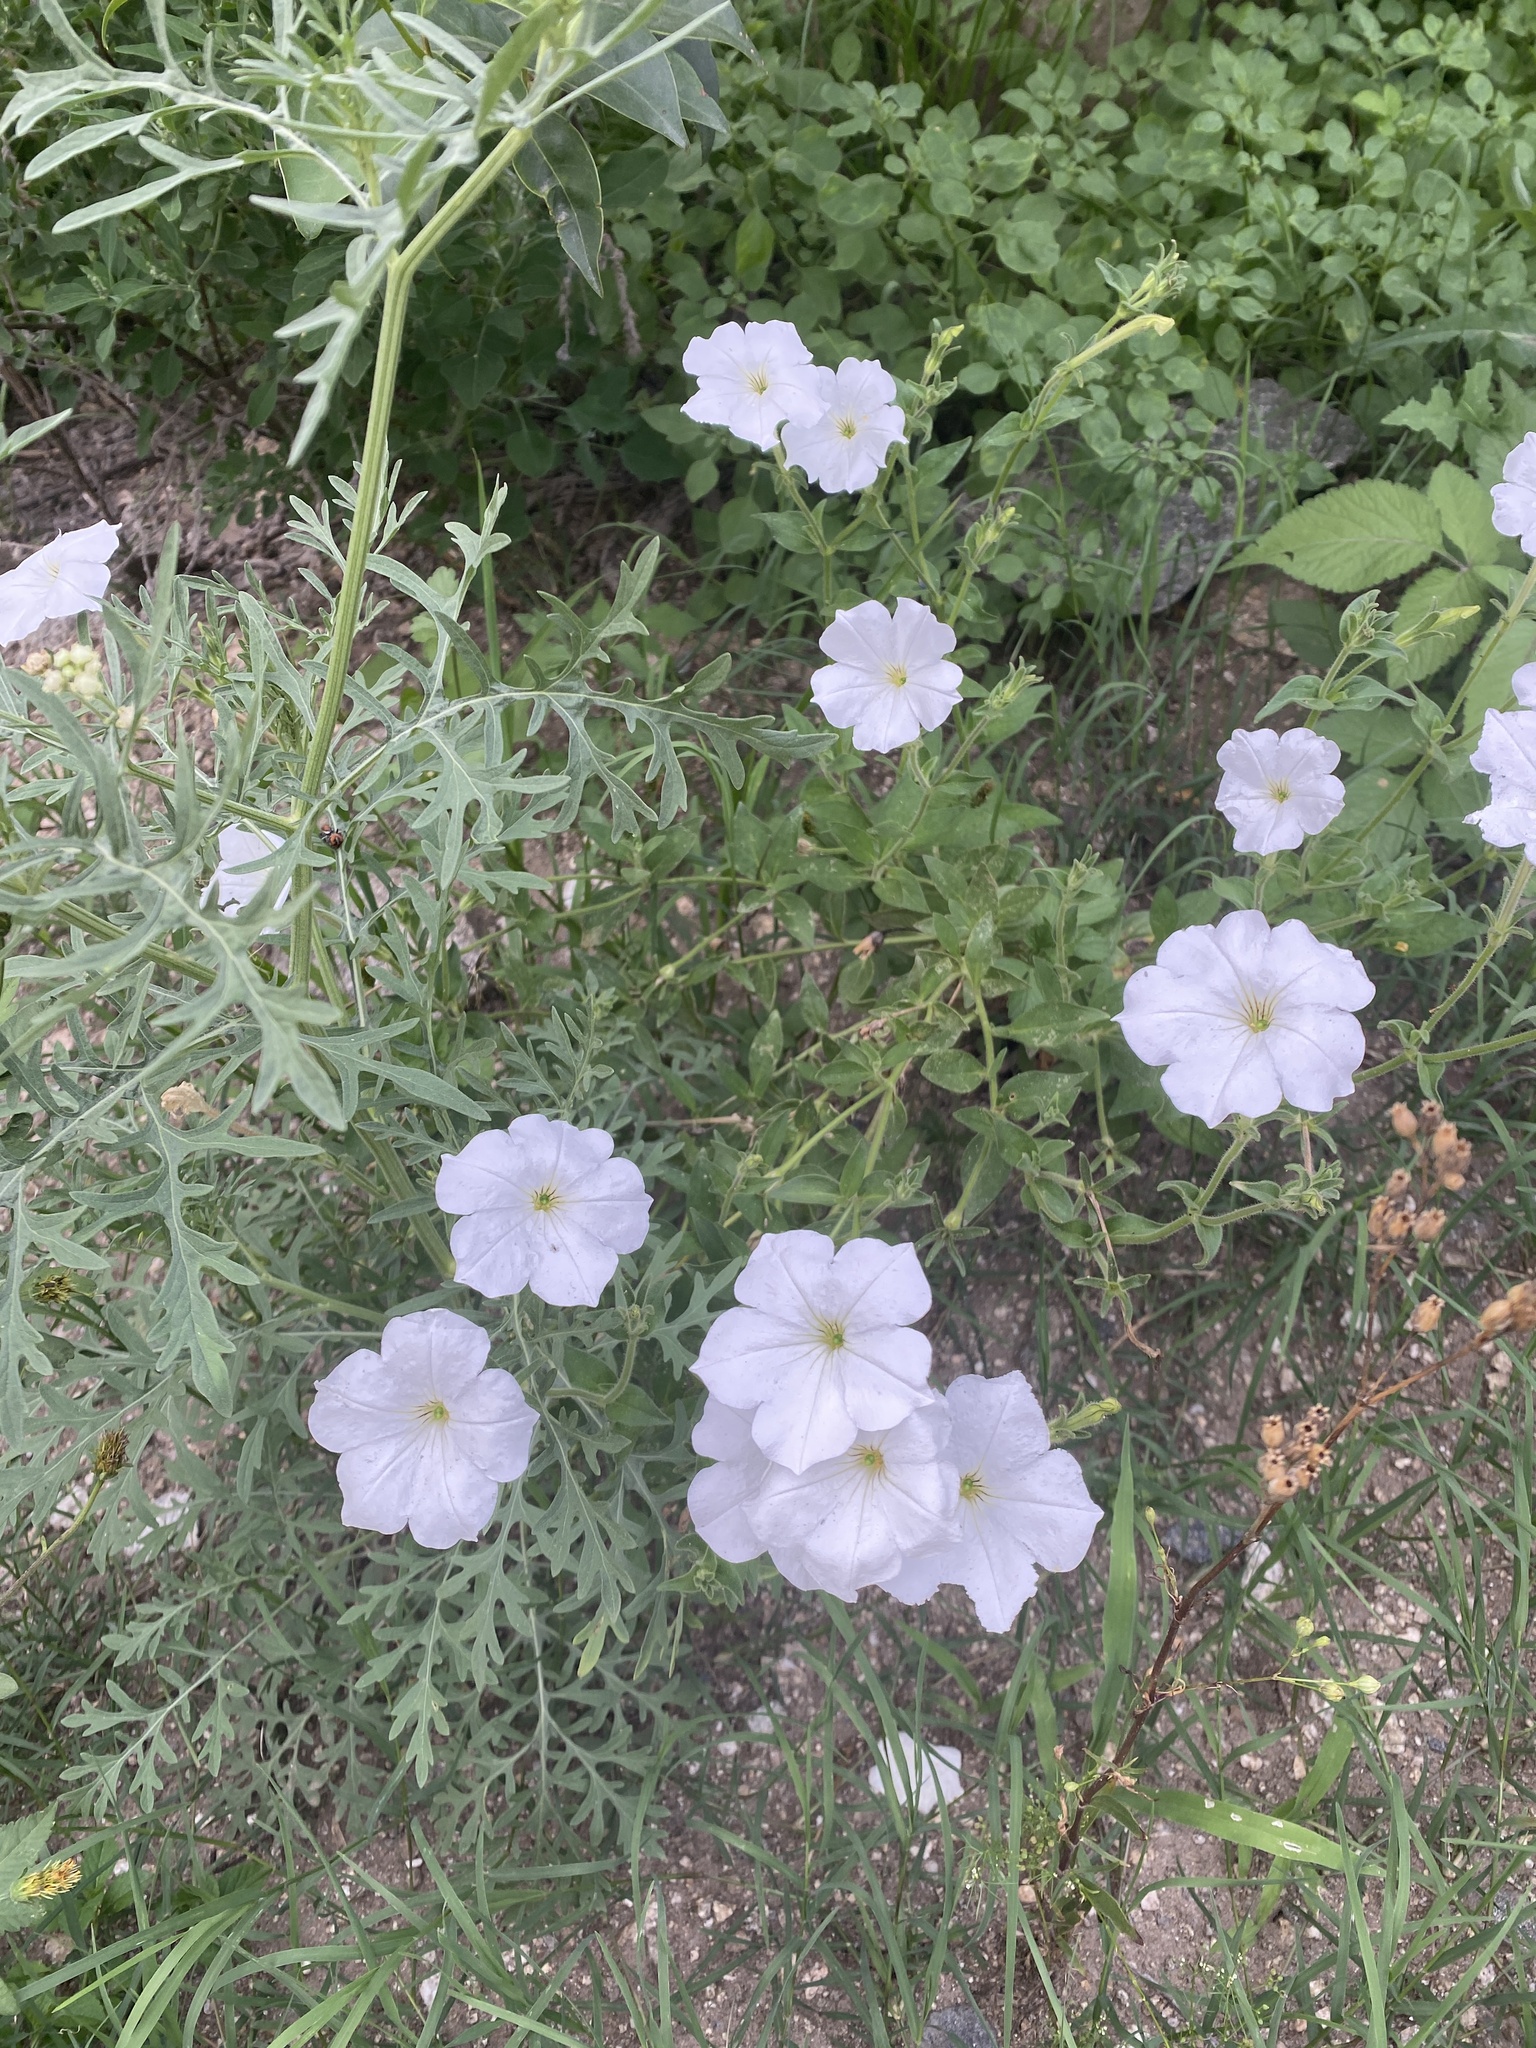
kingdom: Plantae
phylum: Tracheophyta
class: Magnoliopsida
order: Solanales
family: Solanaceae
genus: Petunia
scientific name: Petunia axillaris
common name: Large white petunia
